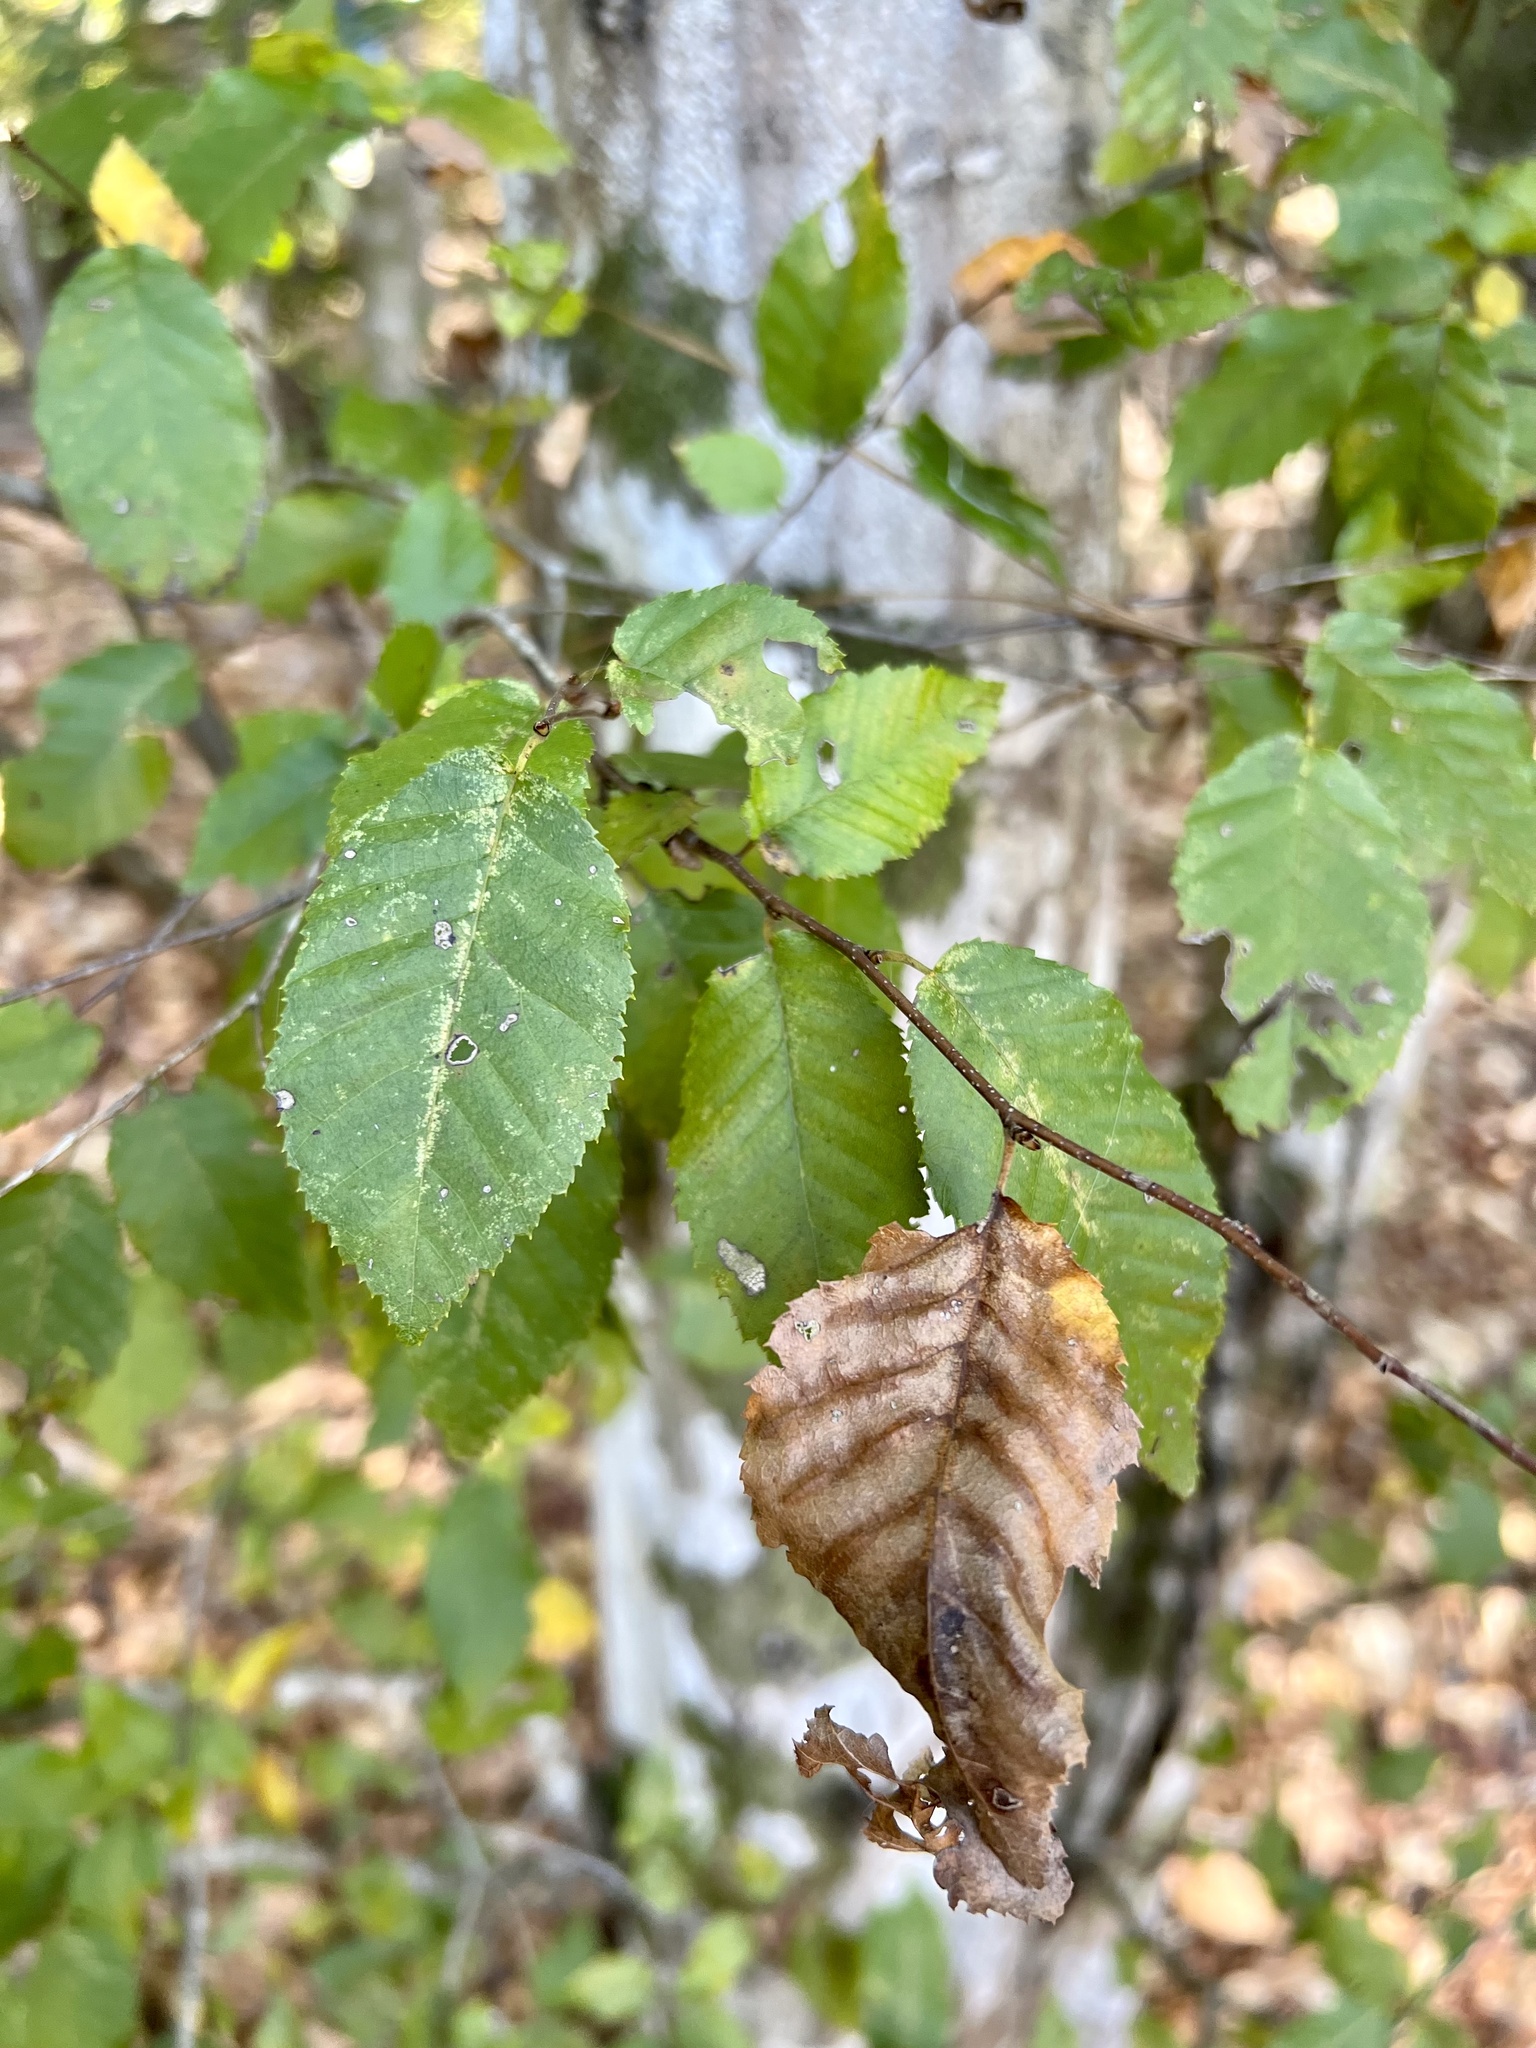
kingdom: Plantae
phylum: Tracheophyta
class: Magnoliopsida
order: Fagales
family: Betulaceae
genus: Carpinus
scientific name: Carpinus caroliniana
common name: American hornbeam
